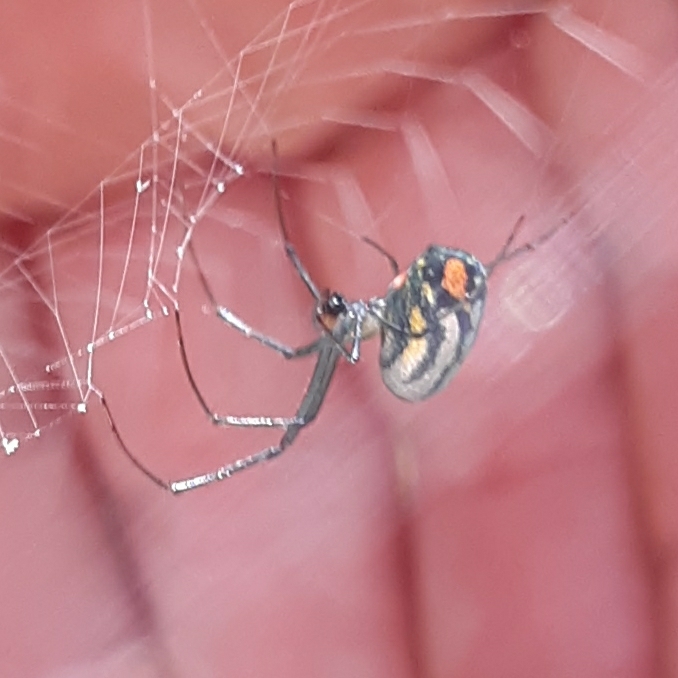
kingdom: Animalia
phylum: Arthropoda
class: Arachnida
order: Araneae
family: Tetragnathidae
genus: Leucauge
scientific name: Leucauge argyrobapta
